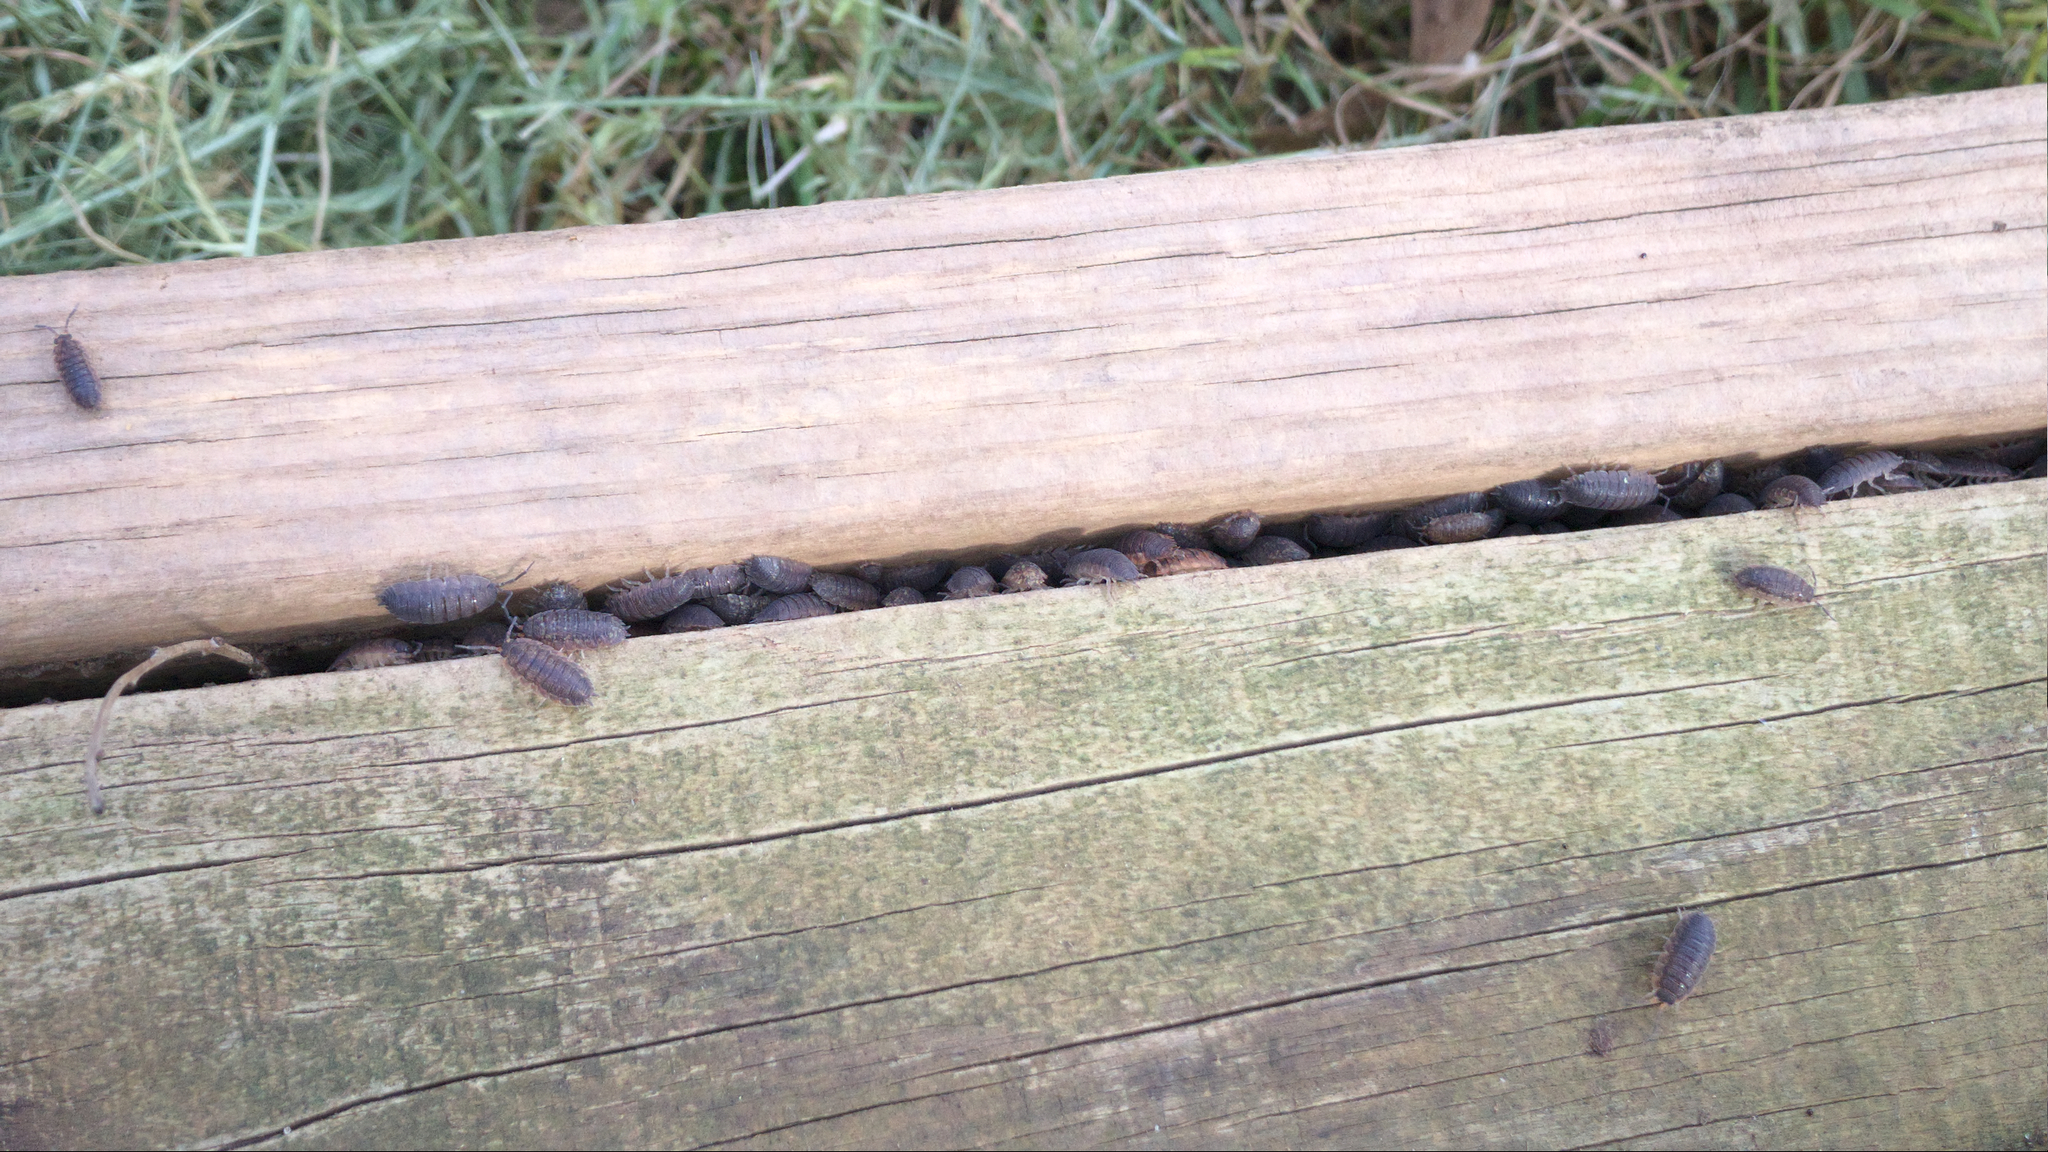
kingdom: Animalia
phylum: Arthropoda
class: Malacostraca
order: Isopoda
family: Porcellionidae
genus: Porcellio
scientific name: Porcellio scaber
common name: Common rough woodlouse
